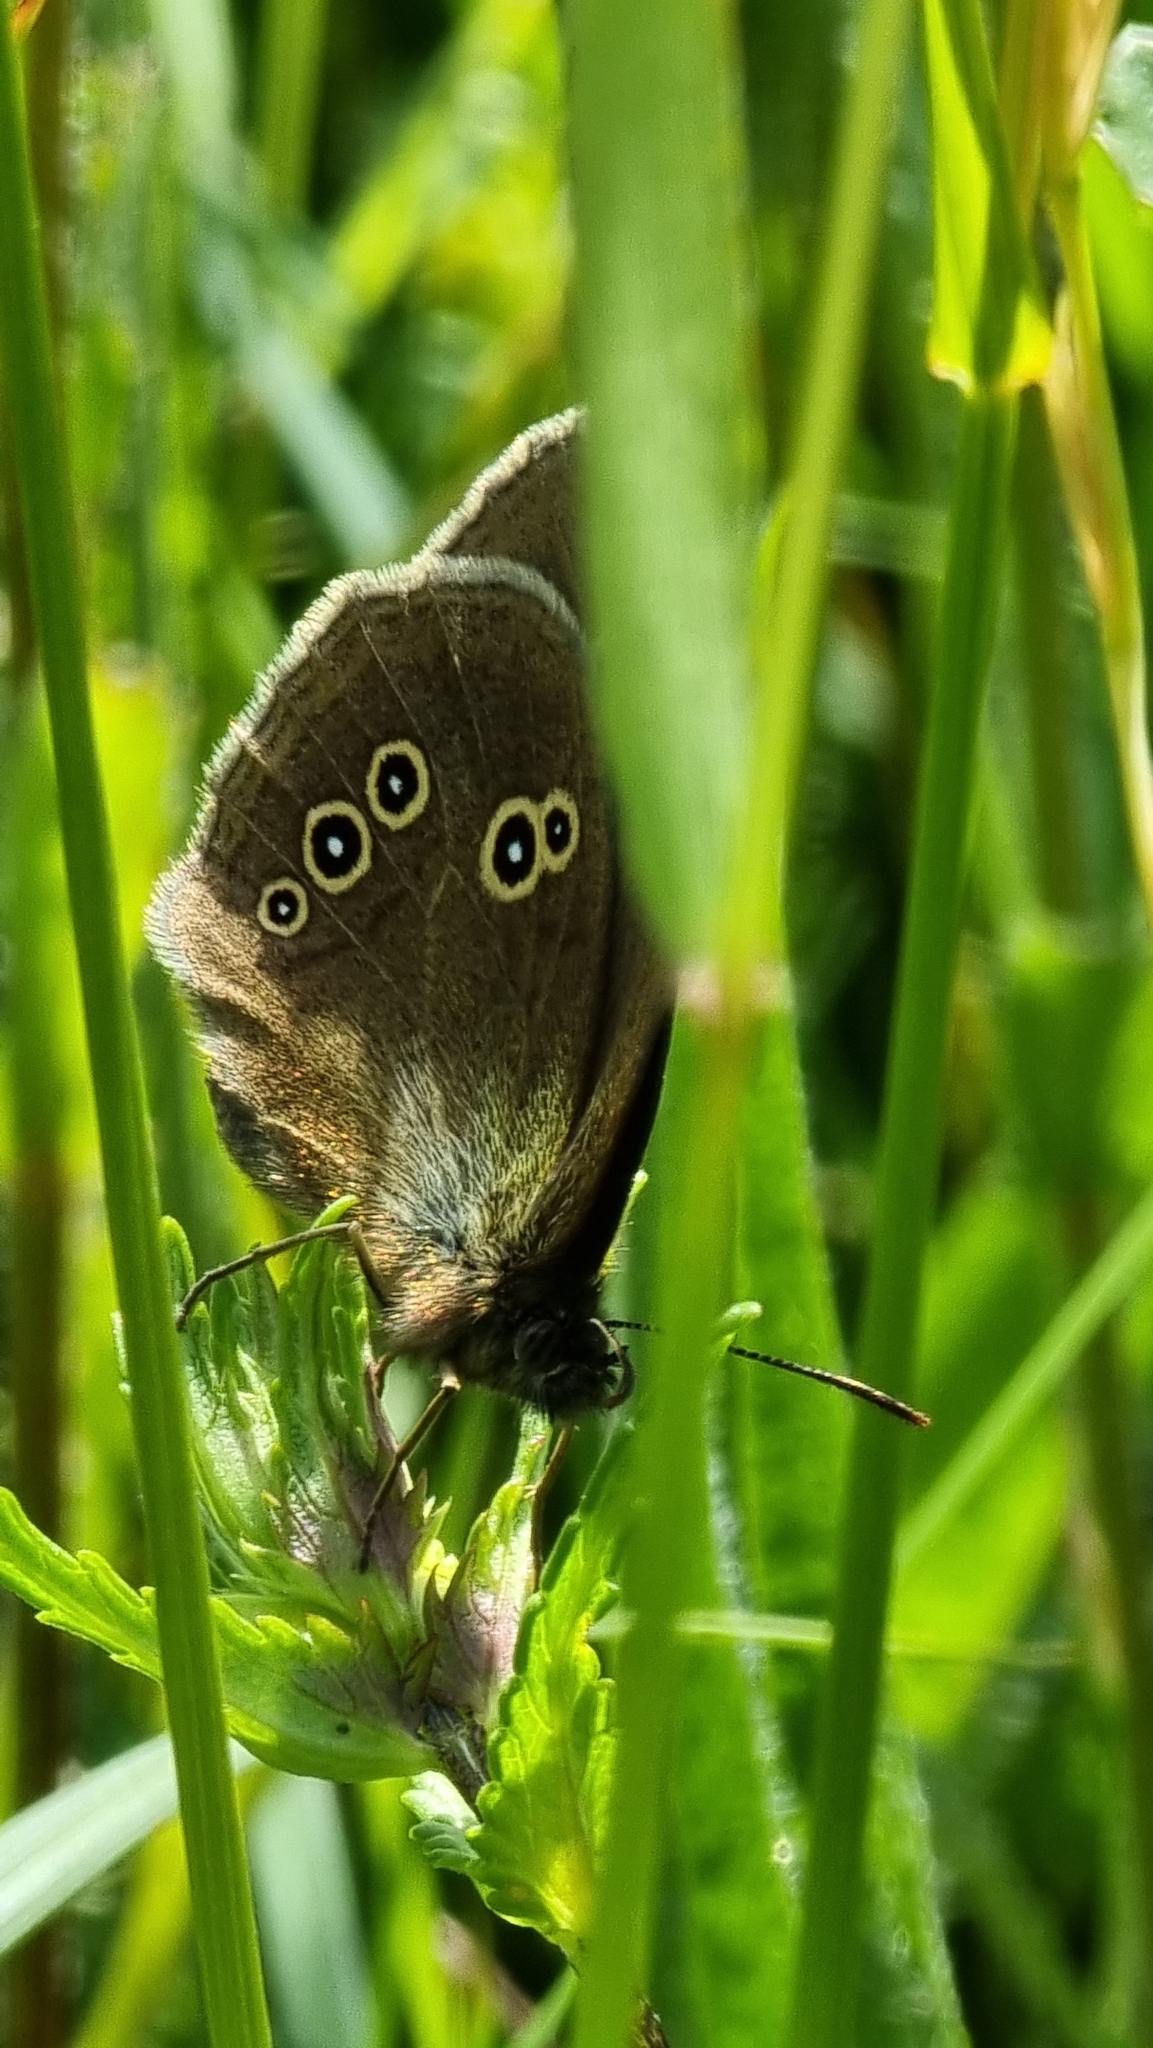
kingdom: Animalia
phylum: Arthropoda
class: Insecta
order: Lepidoptera
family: Nymphalidae
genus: Aphantopus
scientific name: Aphantopus hyperantus
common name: Ringlet
